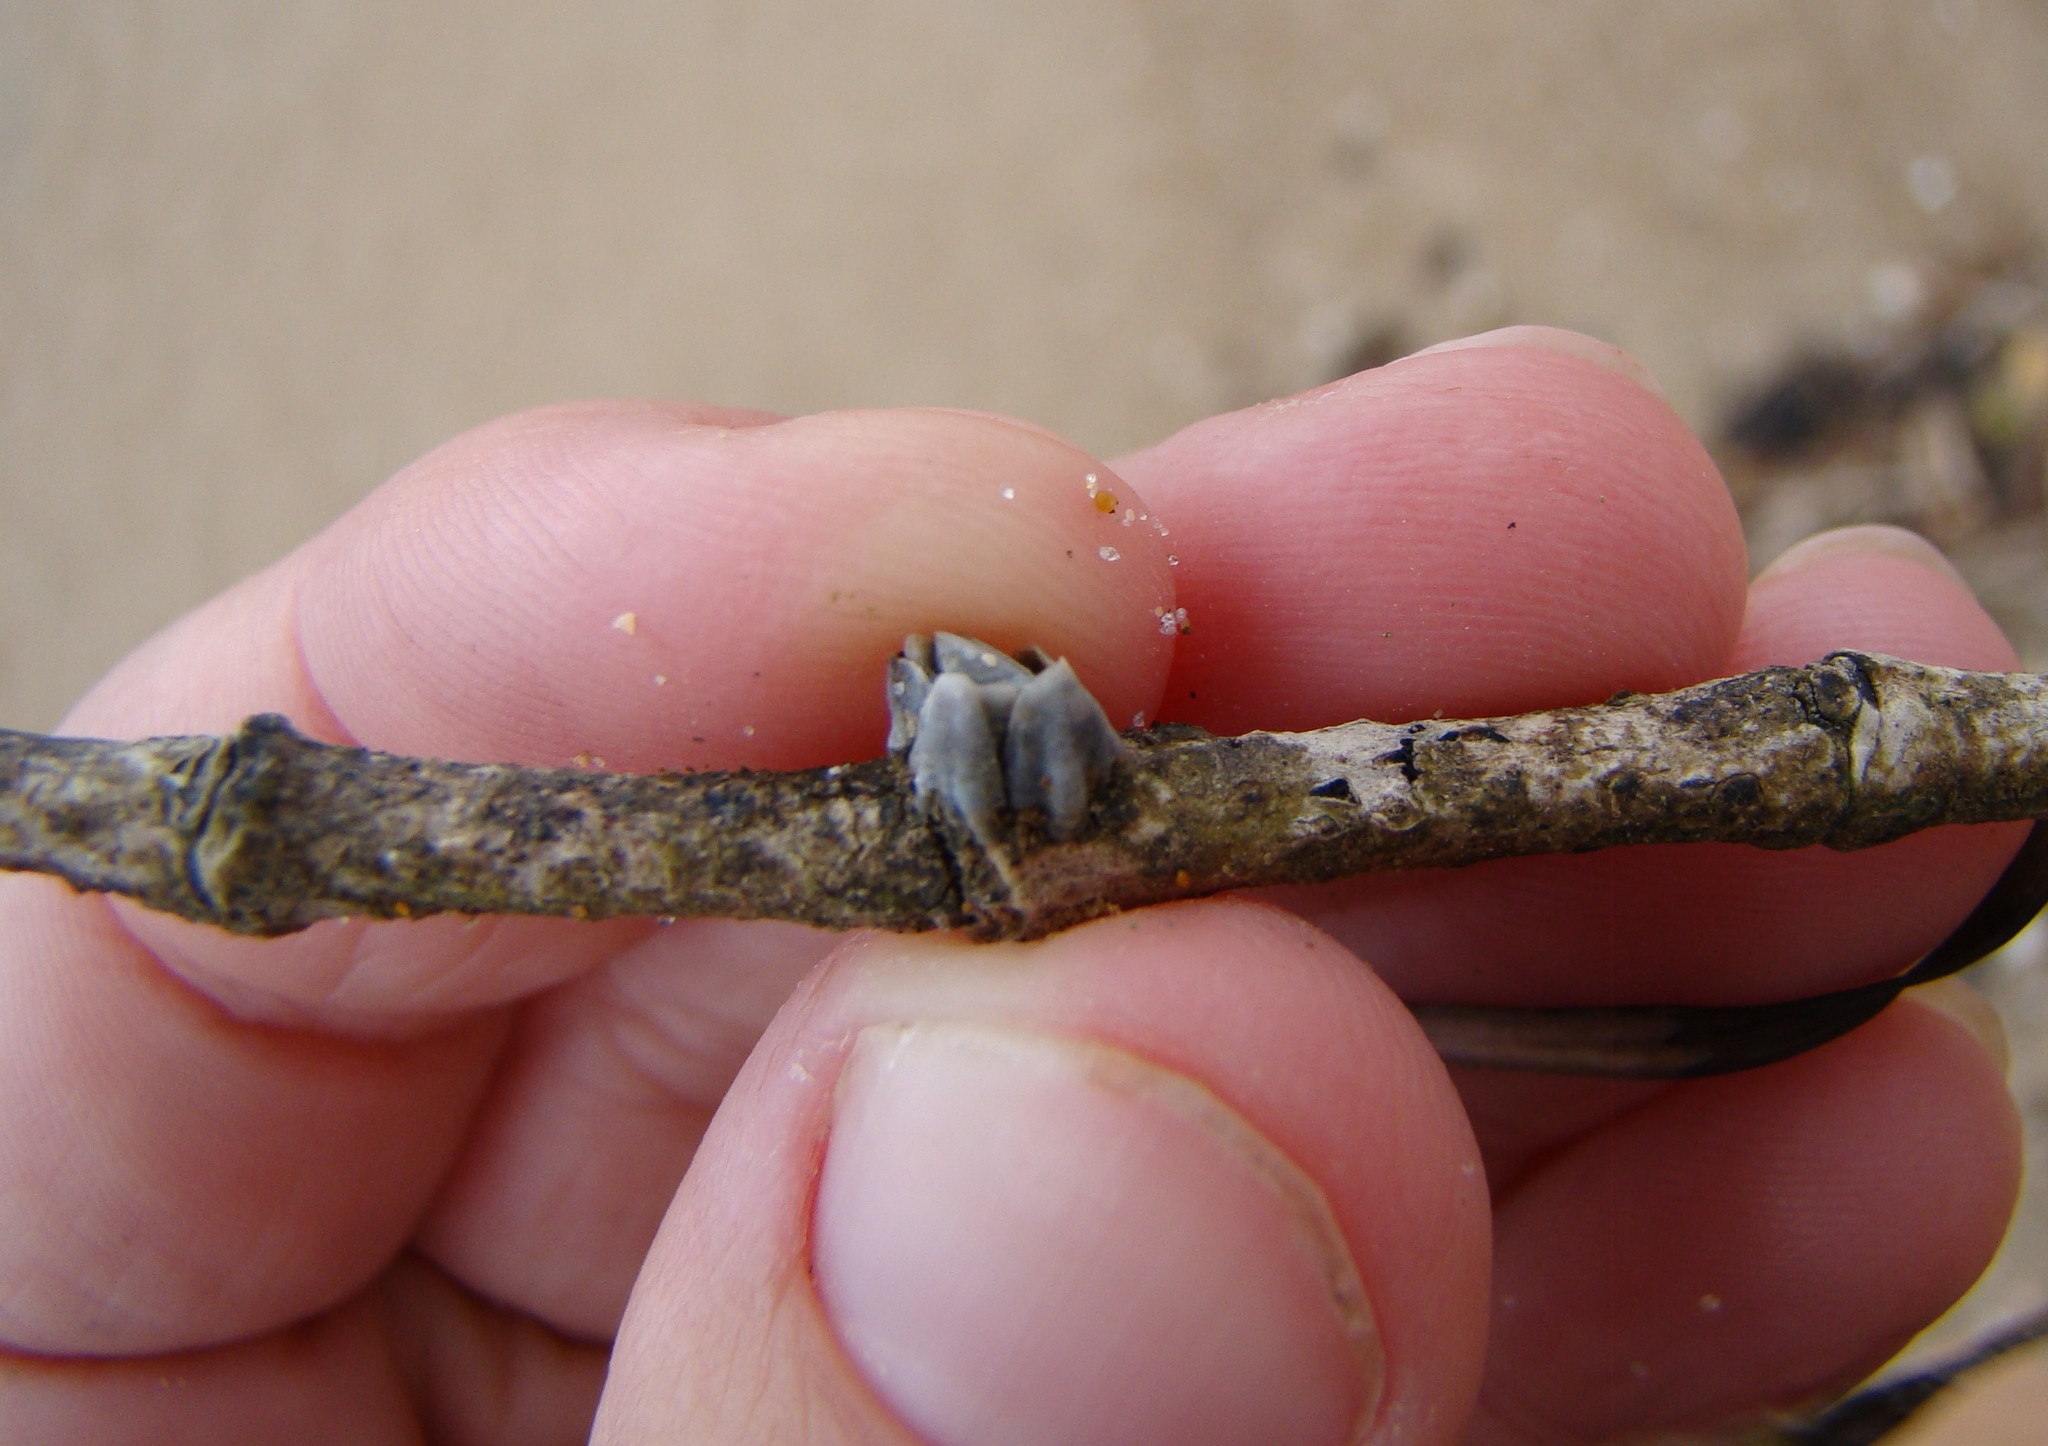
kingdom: Animalia
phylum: Arthropoda
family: Elminiidae
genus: Austrominius
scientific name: Austrominius modestus
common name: Australasian barnacle
